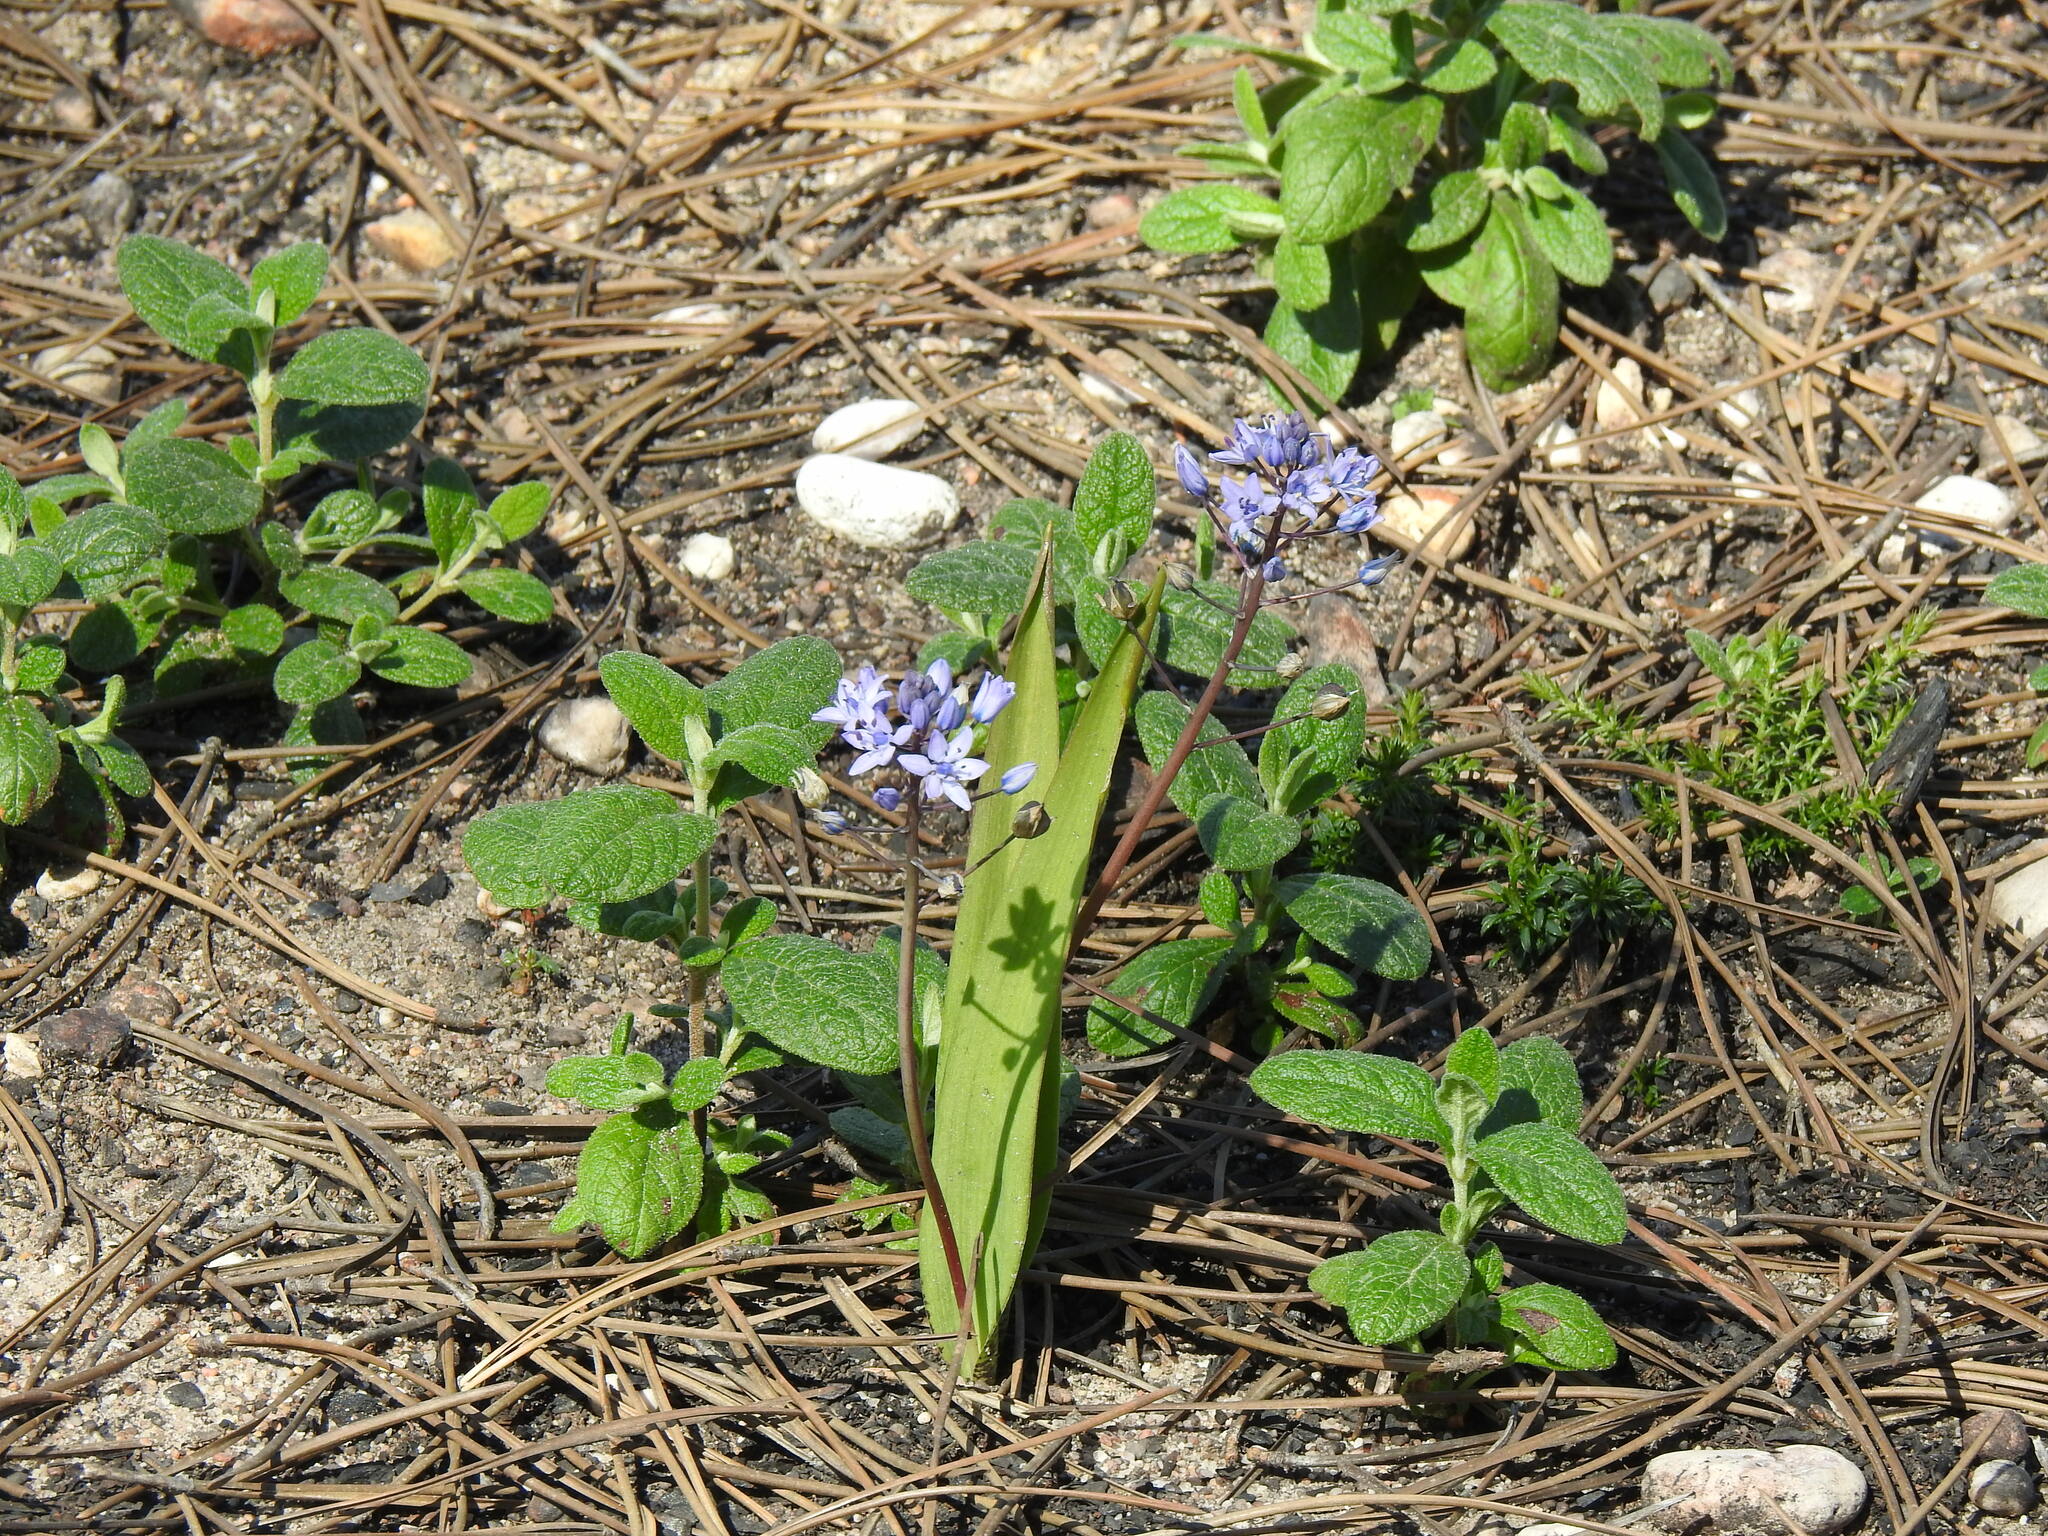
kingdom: Plantae
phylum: Tracheophyta
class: Liliopsida
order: Asparagales
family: Asparagaceae
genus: Scilla
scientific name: Scilla monophyllos
